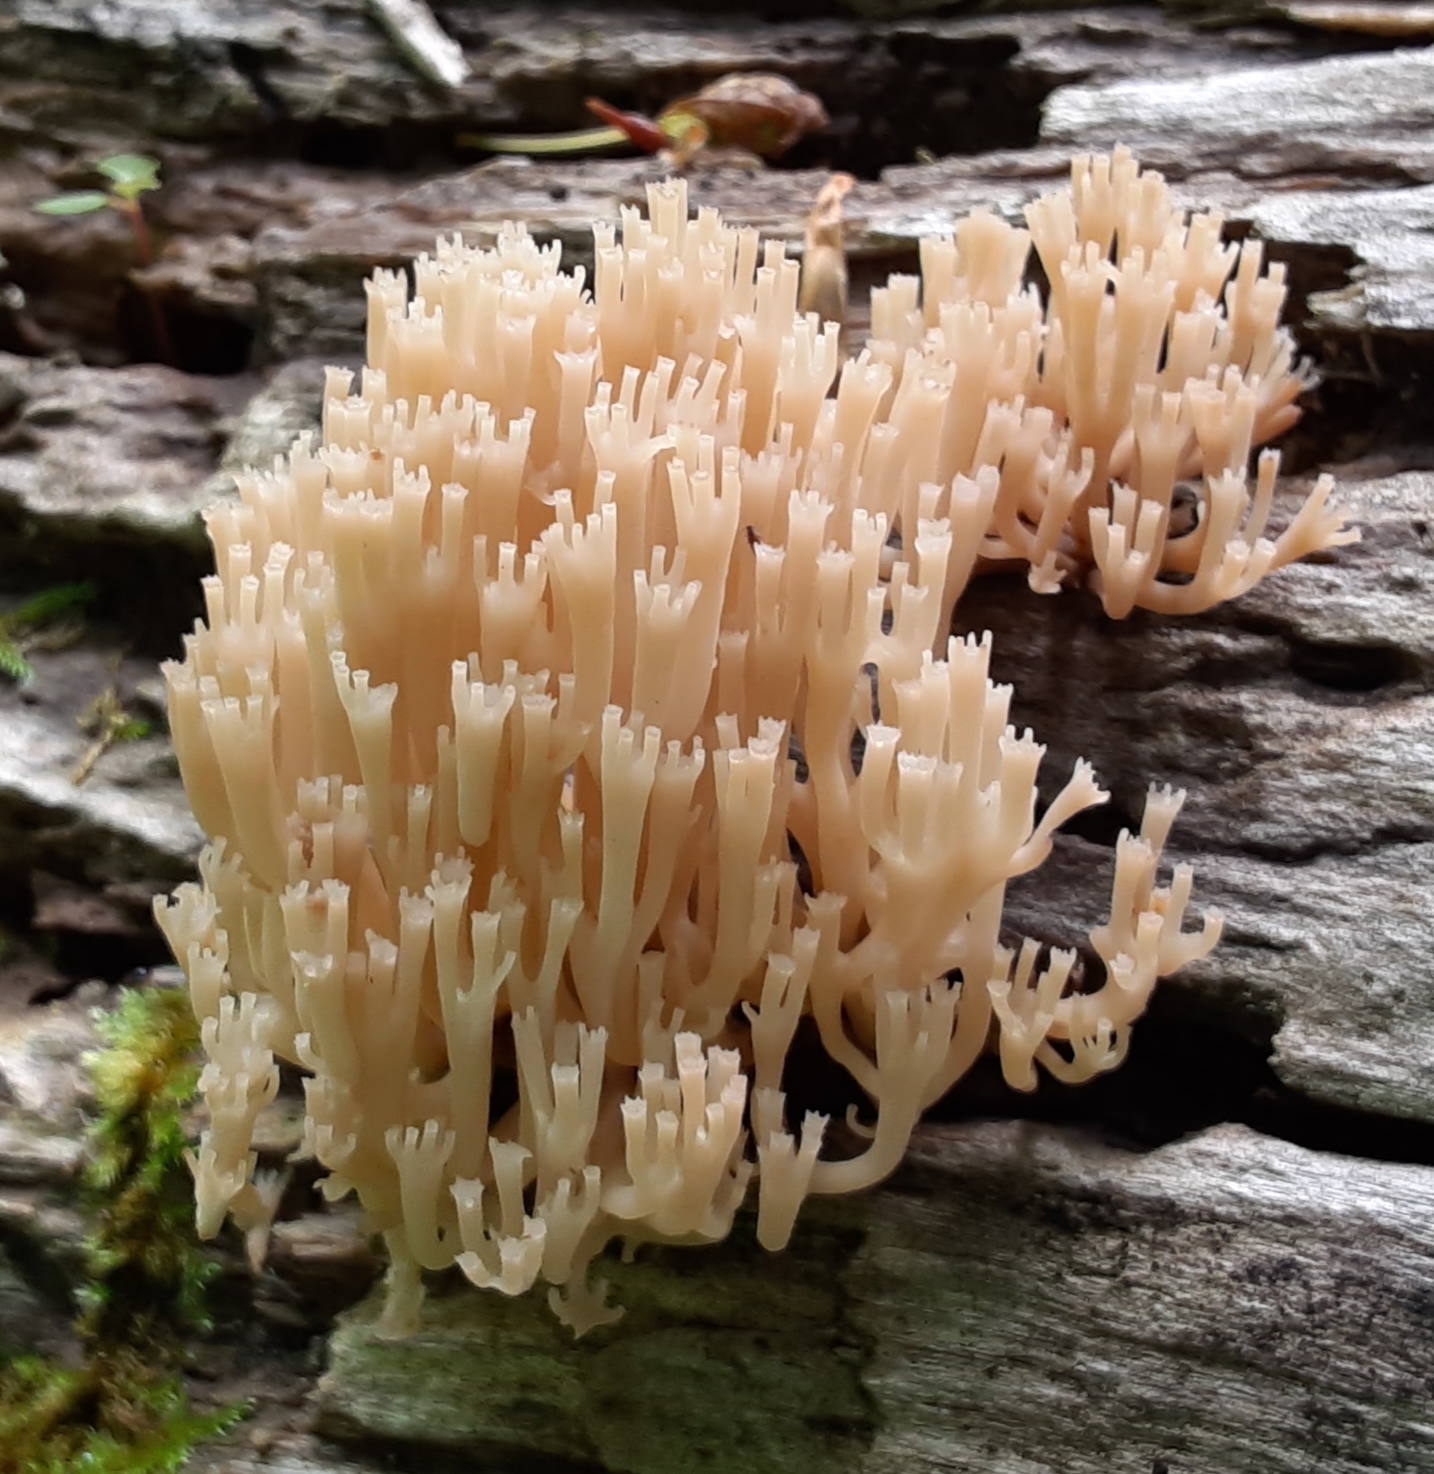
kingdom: Fungi
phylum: Basidiomycota
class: Agaricomycetes
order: Russulales
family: Auriscalpiaceae
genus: Artomyces
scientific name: Artomyces pyxidatus
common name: Crown-tipped coral fungus
